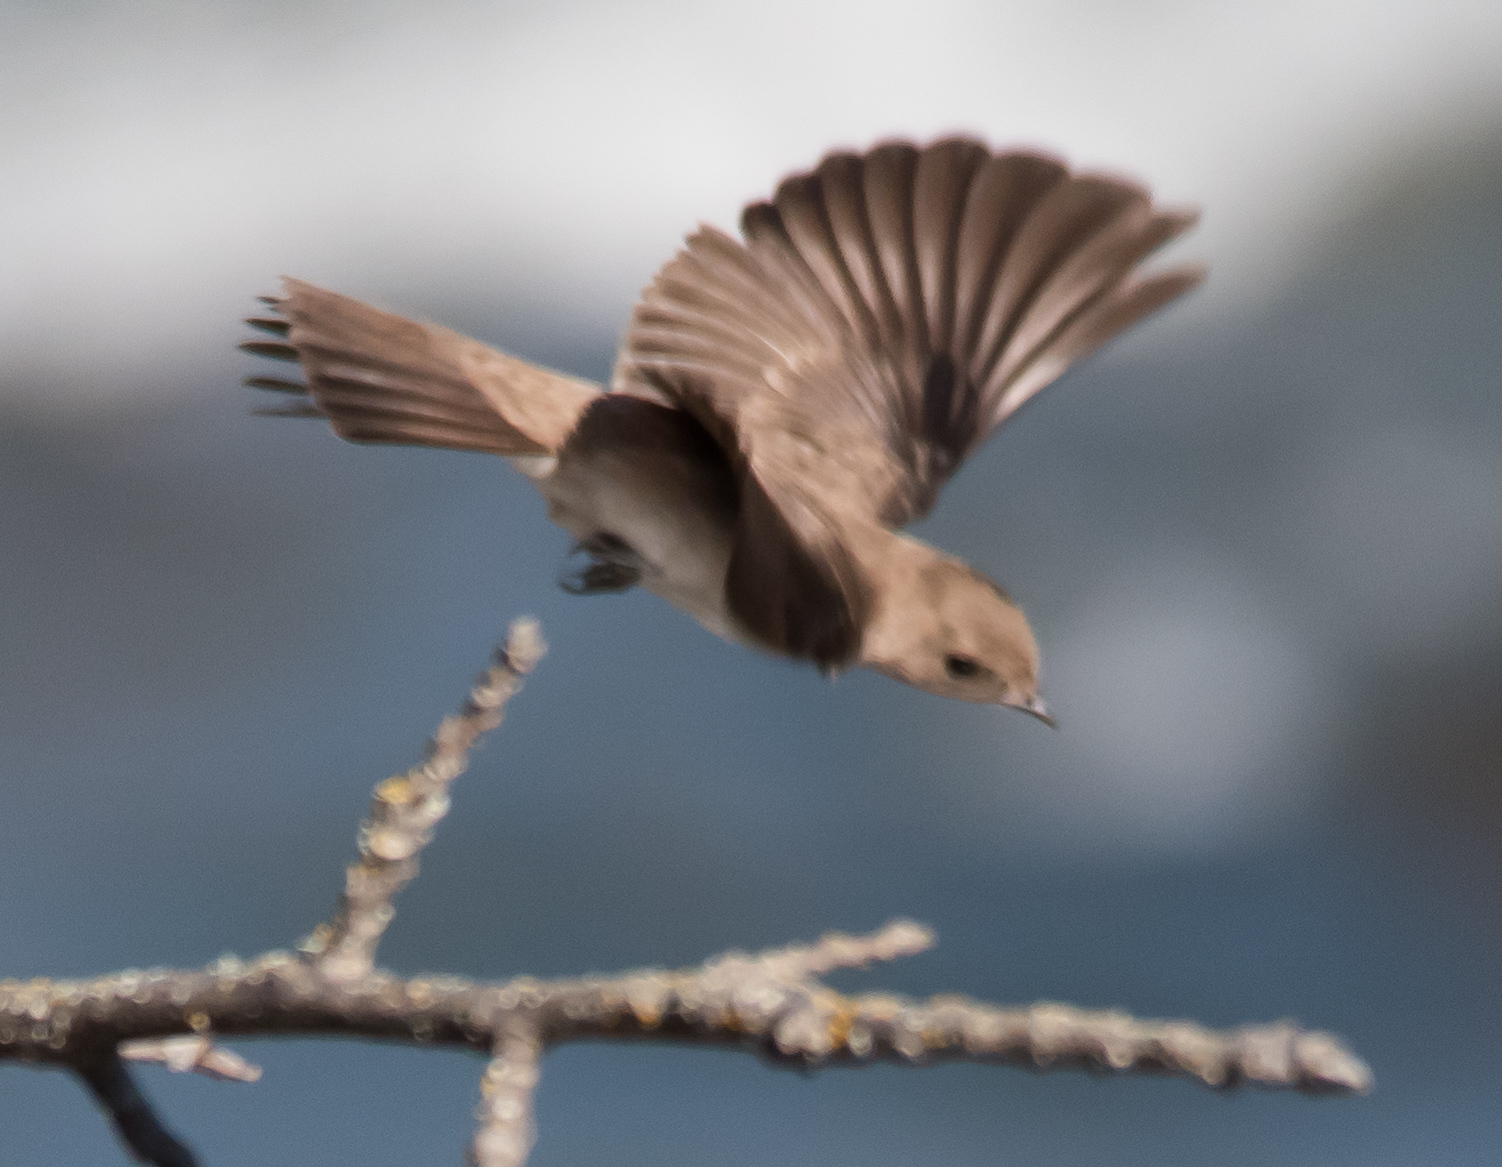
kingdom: Animalia
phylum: Chordata
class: Aves
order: Passeriformes
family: Hirundinidae
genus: Stelgidopteryx
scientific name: Stelgidopteryx serripennis
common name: Northern rough-winged swallow
